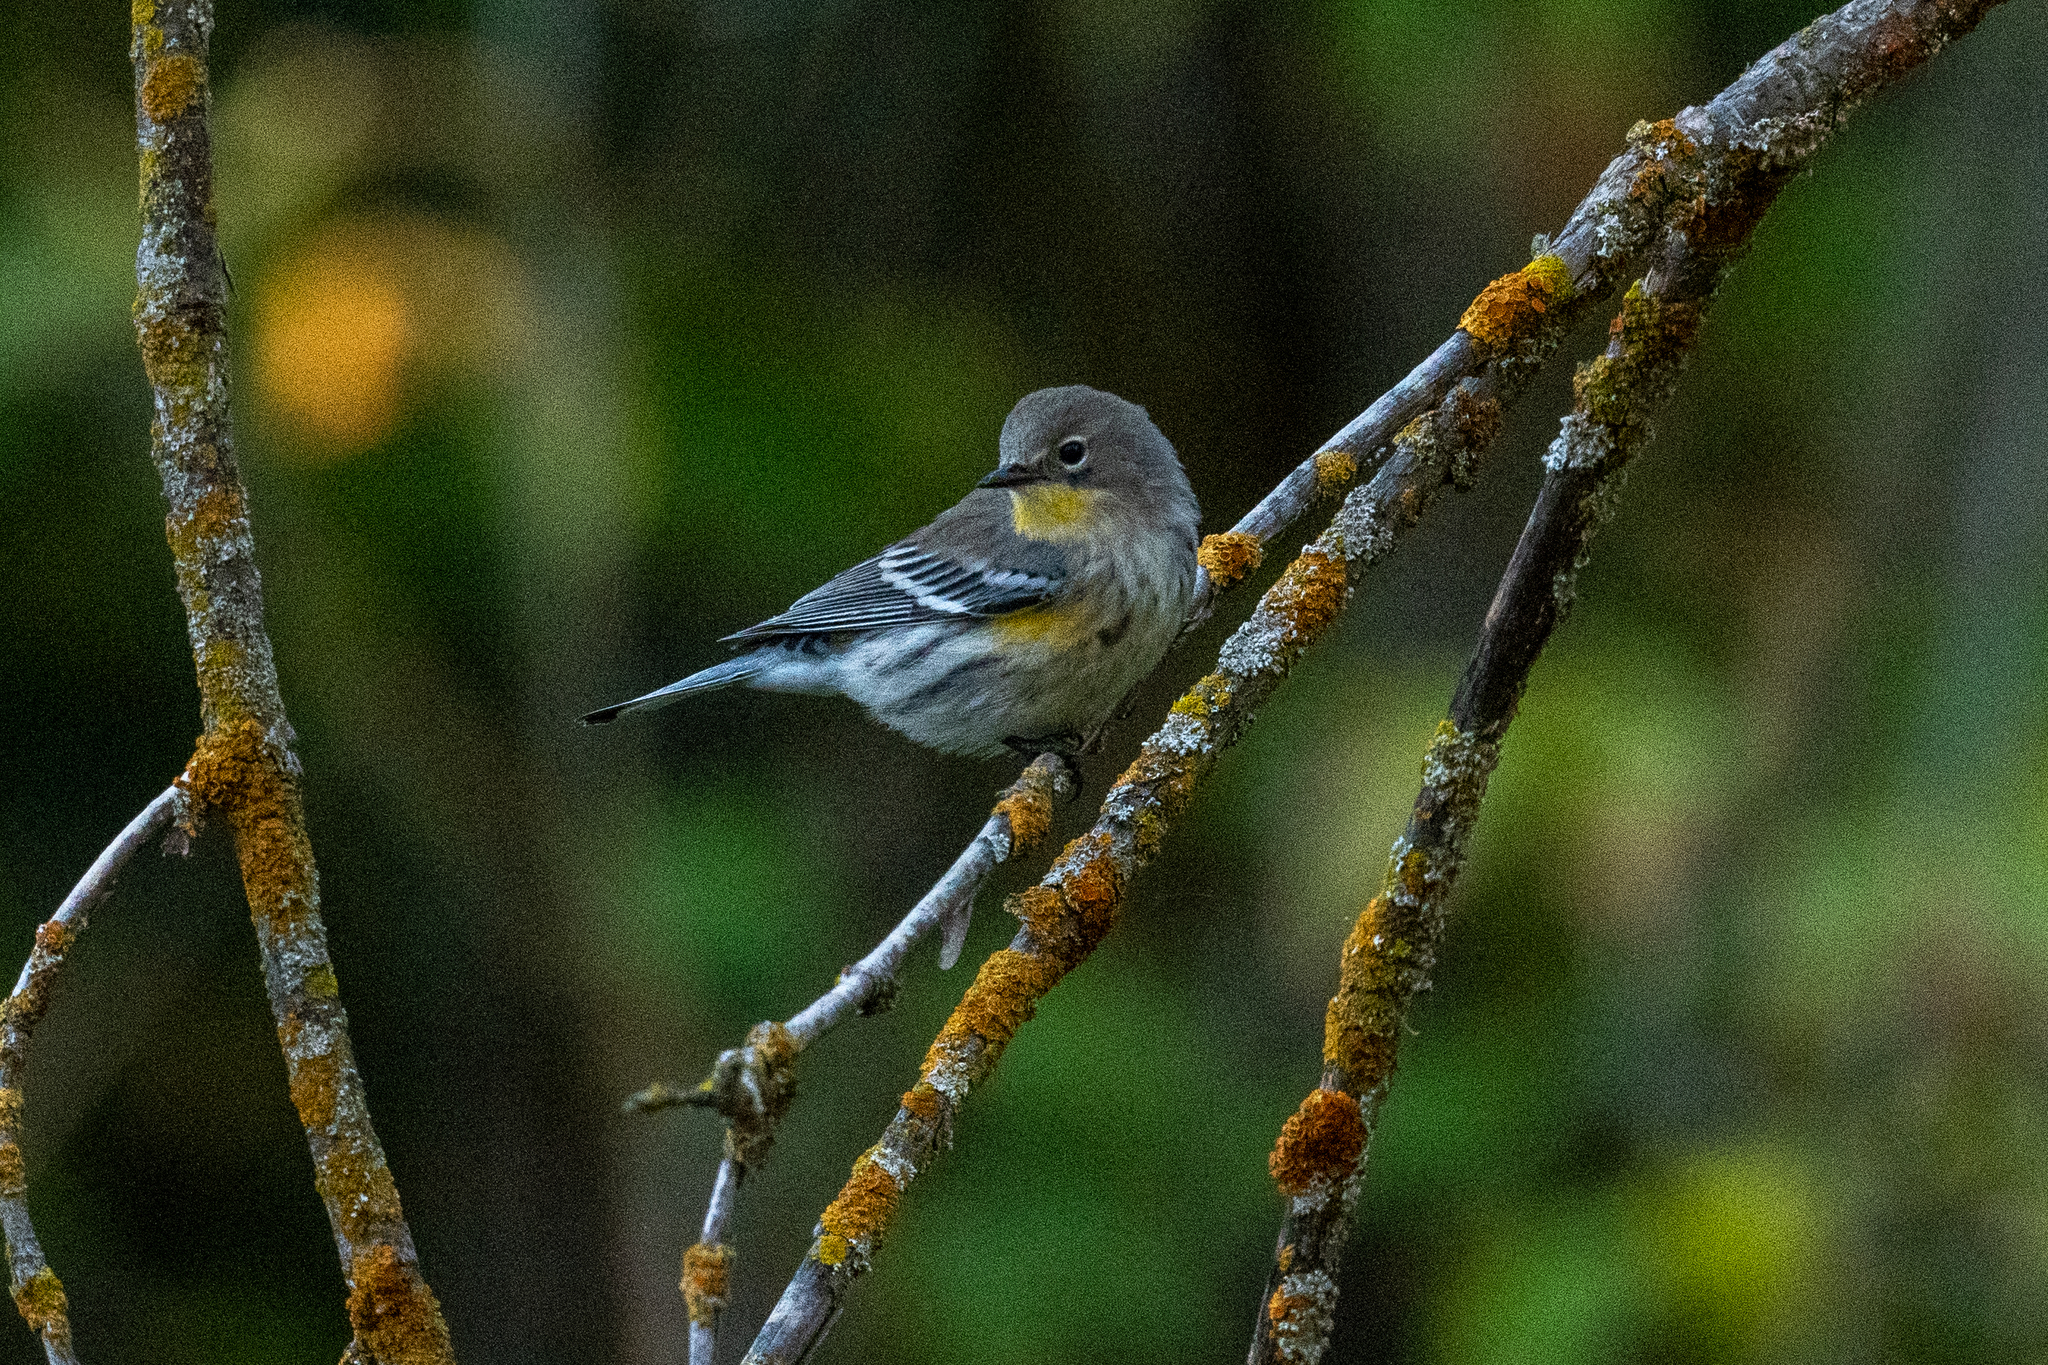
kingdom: Animalia
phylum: Chordata
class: Aves
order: Passeriformes
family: Parulidae
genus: Setophaga
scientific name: Setophaga coronata
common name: Myrtle warbler
